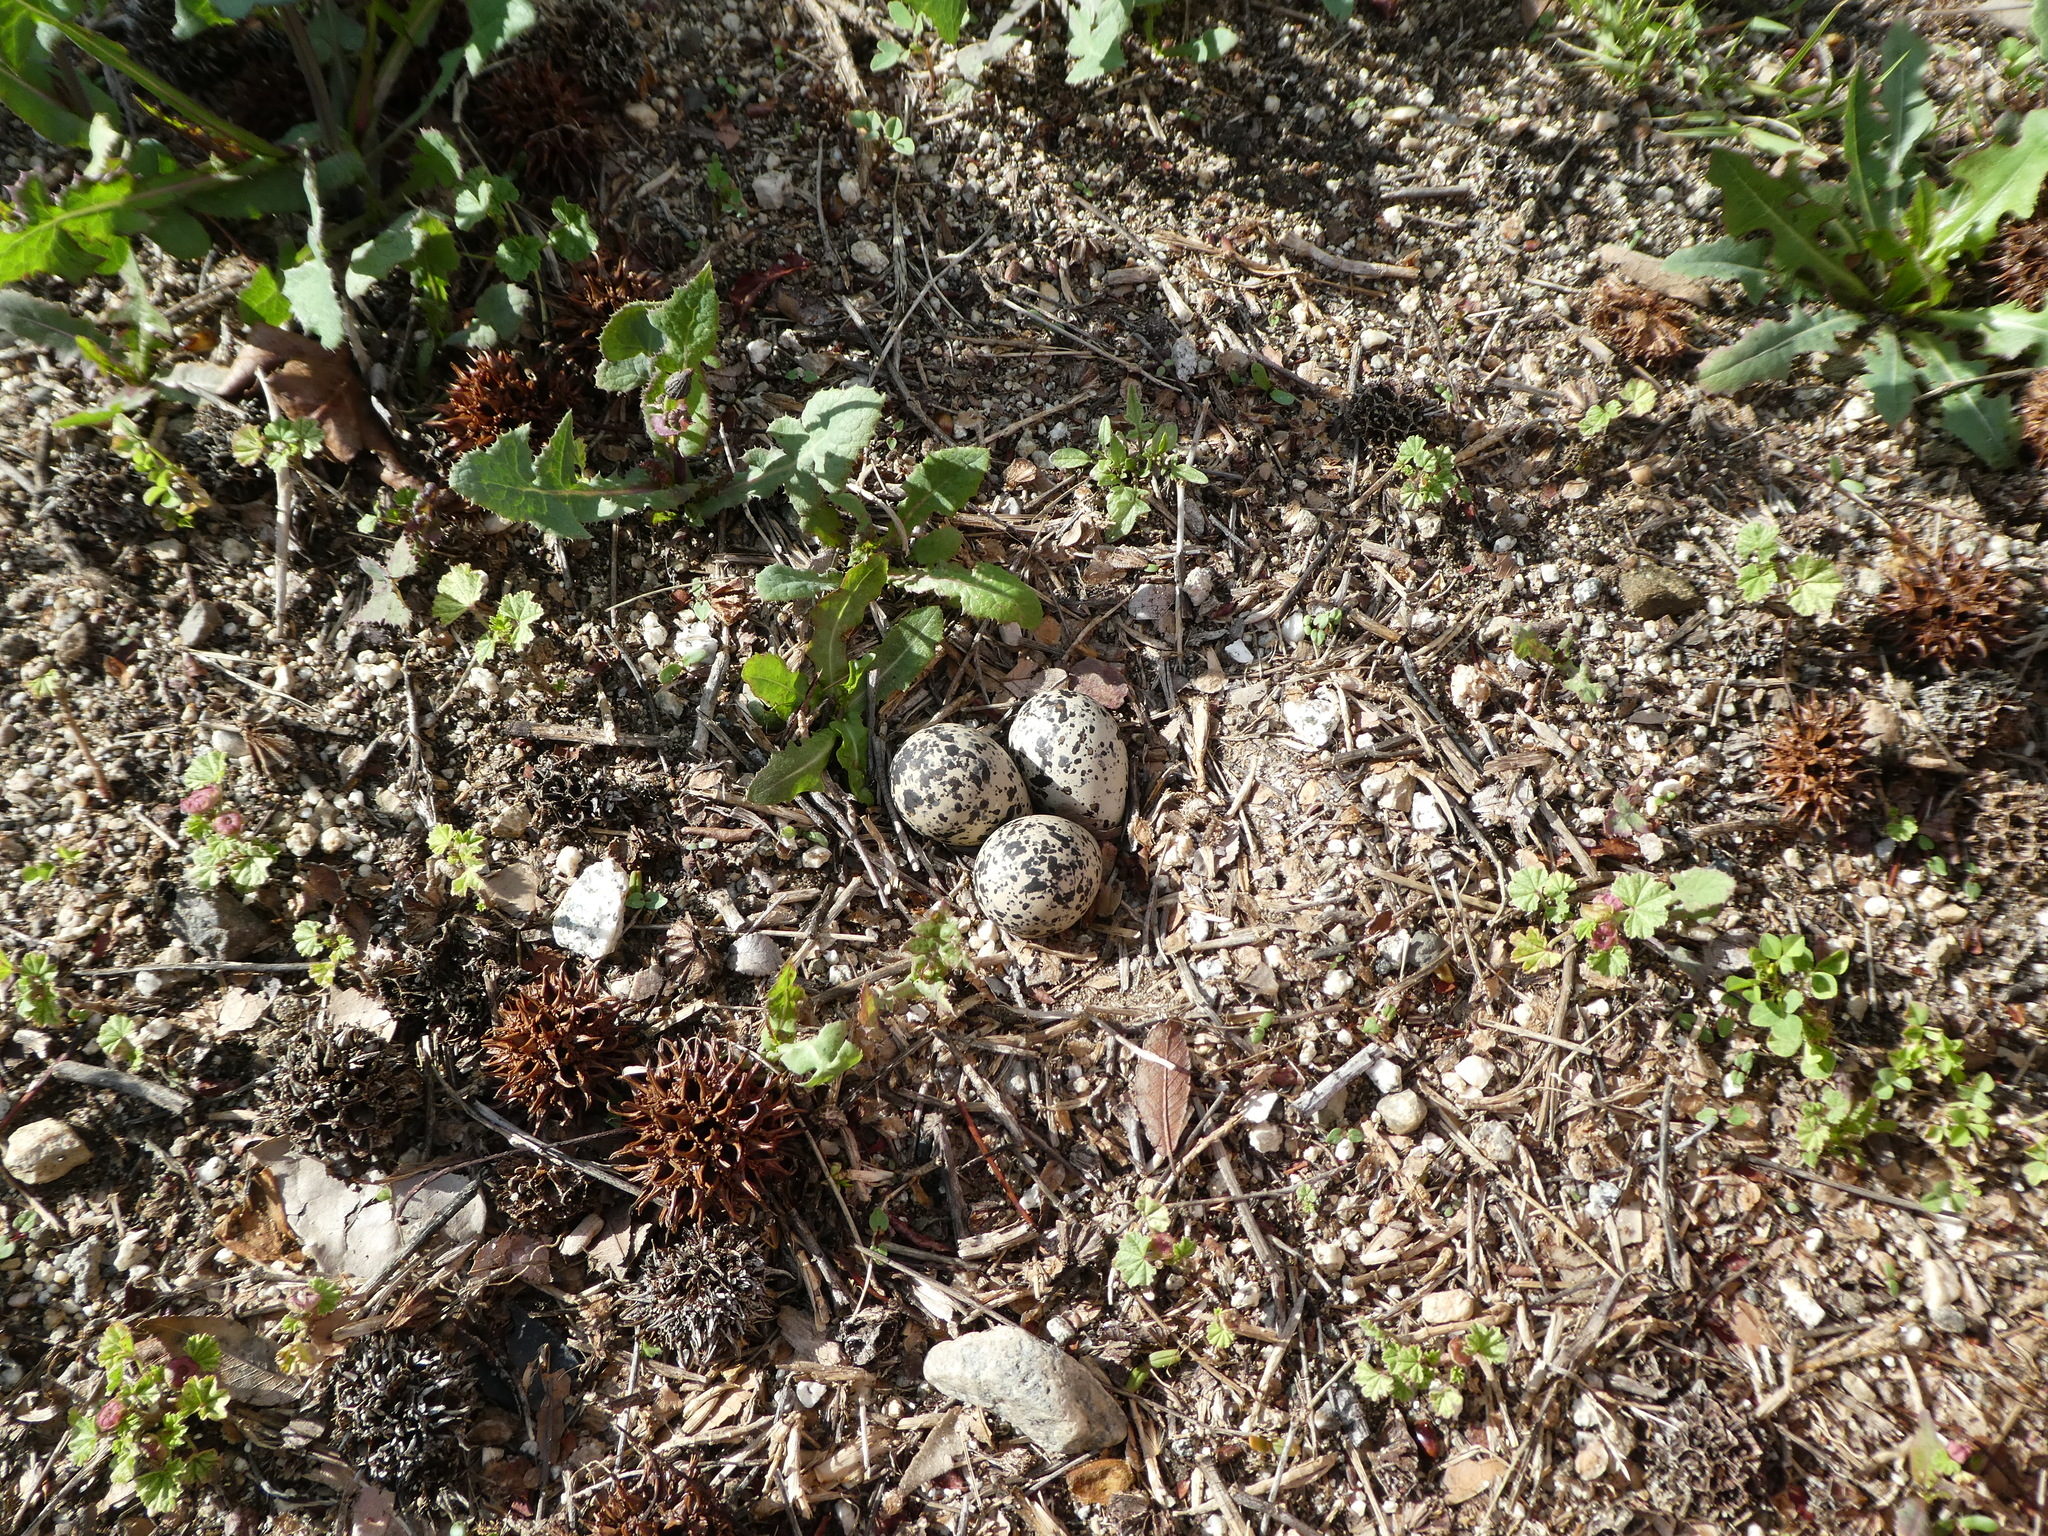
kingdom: Animalia
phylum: Chordata
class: Aves
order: Charadriiformes
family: Charadriidae
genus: Charadrius
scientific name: Charadrius vociferus
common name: Killdeer
